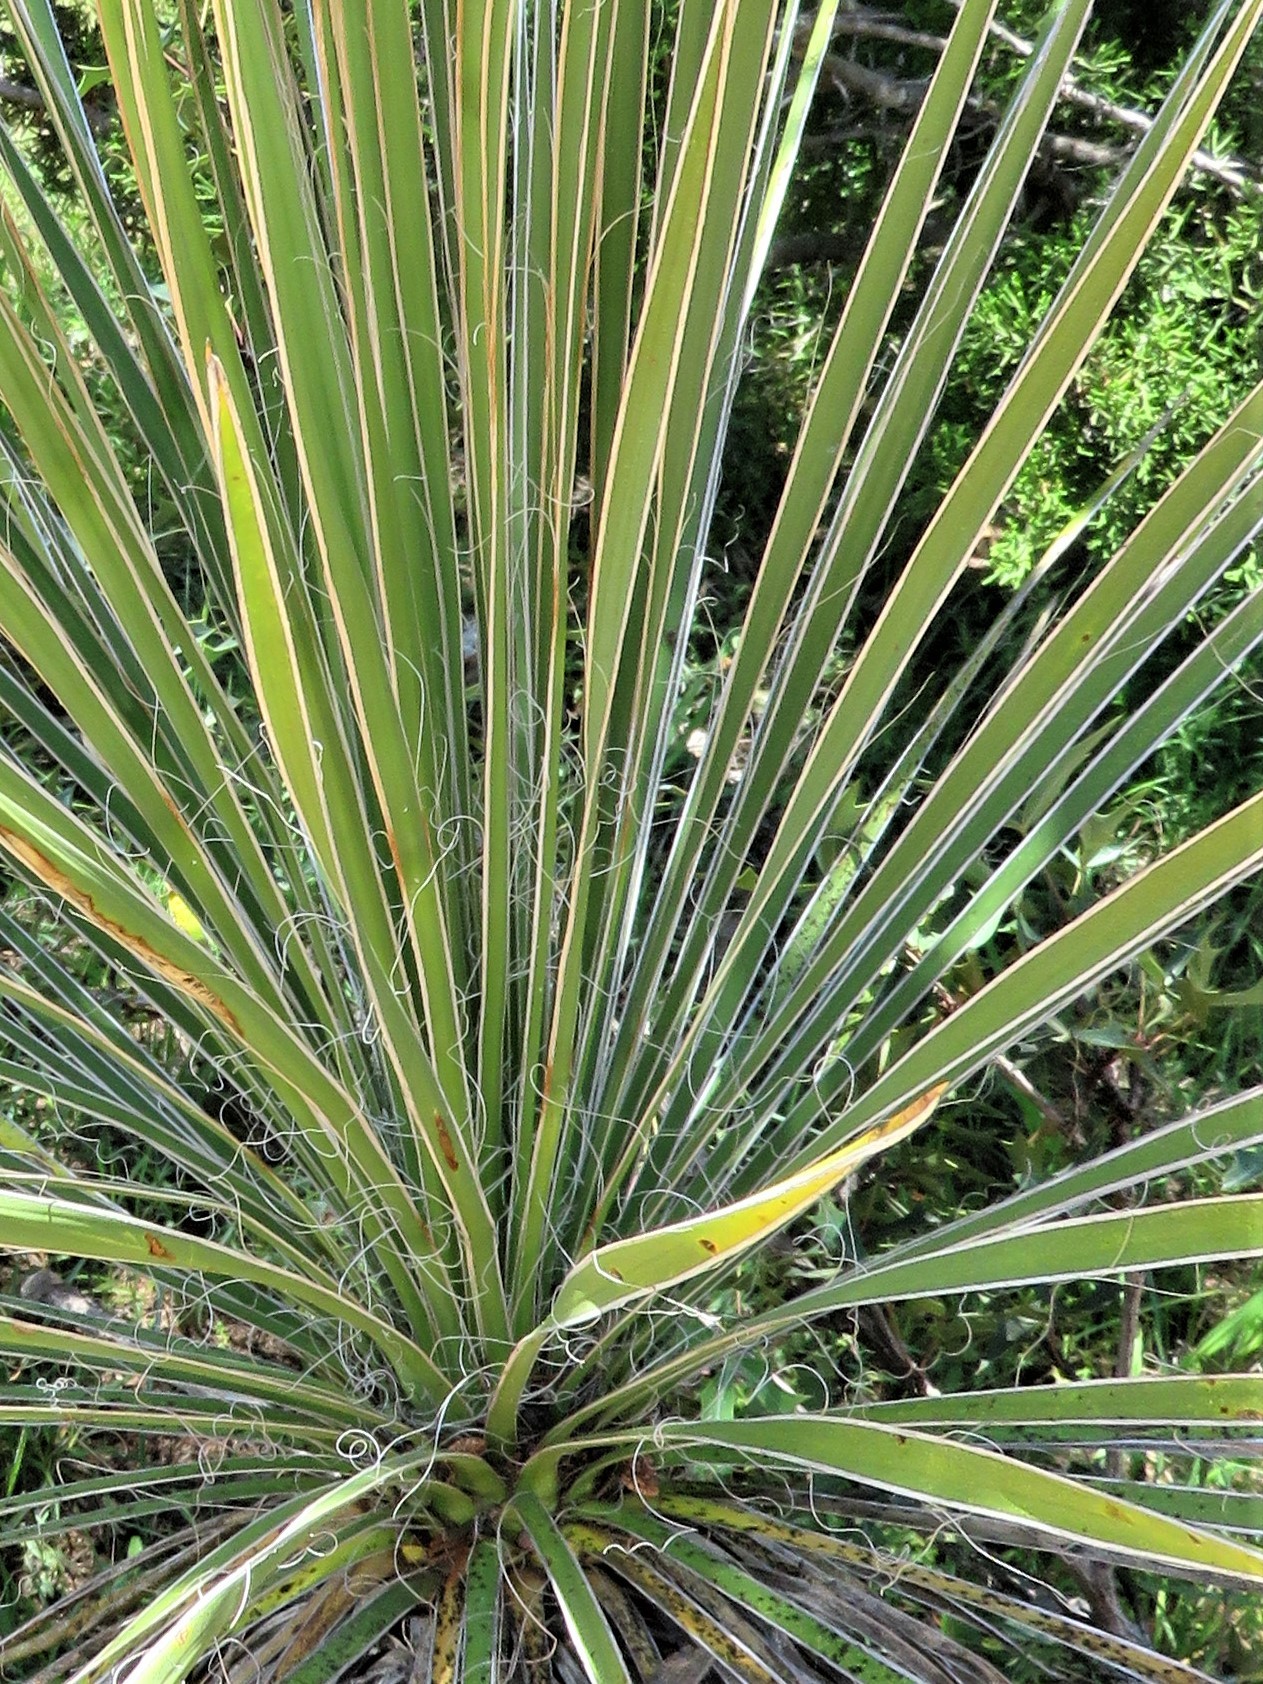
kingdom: Plantae
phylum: Tracheophyta
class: Liliopsida
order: Asparagales
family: Asparagaceae
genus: Yucca
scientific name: Yucca constricta
